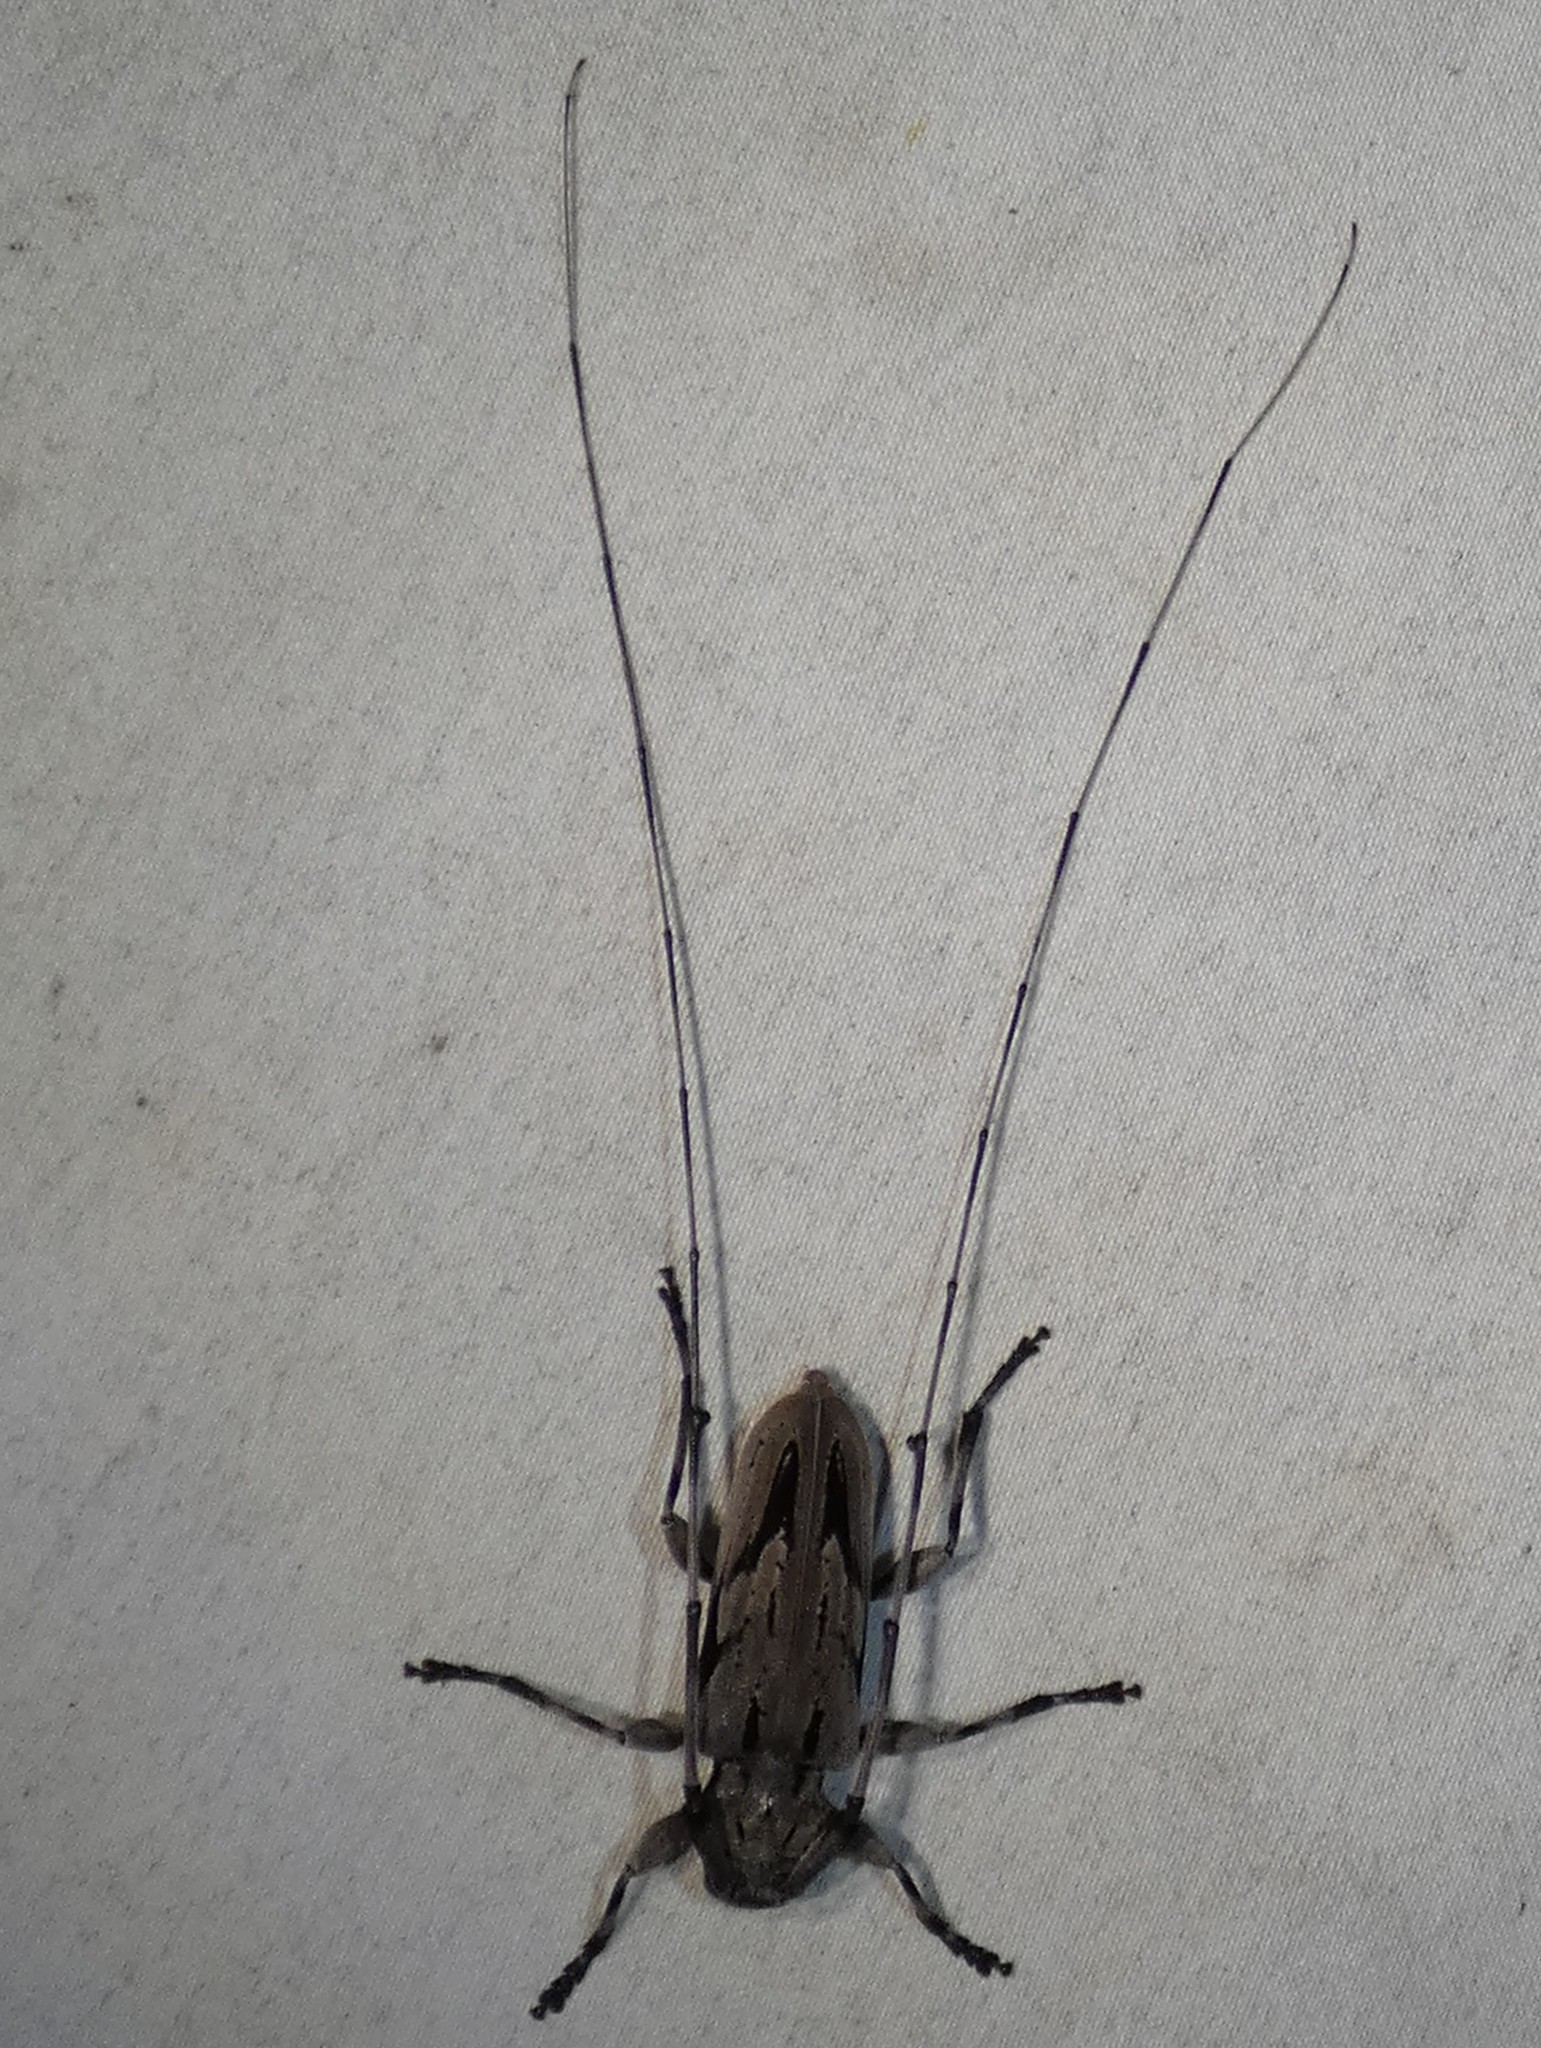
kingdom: Animalia
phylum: Arthropoda
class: Insecta
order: Coleoptera
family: Cerambycidae
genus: Acanthocinus
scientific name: Acanthocinus nodosus
